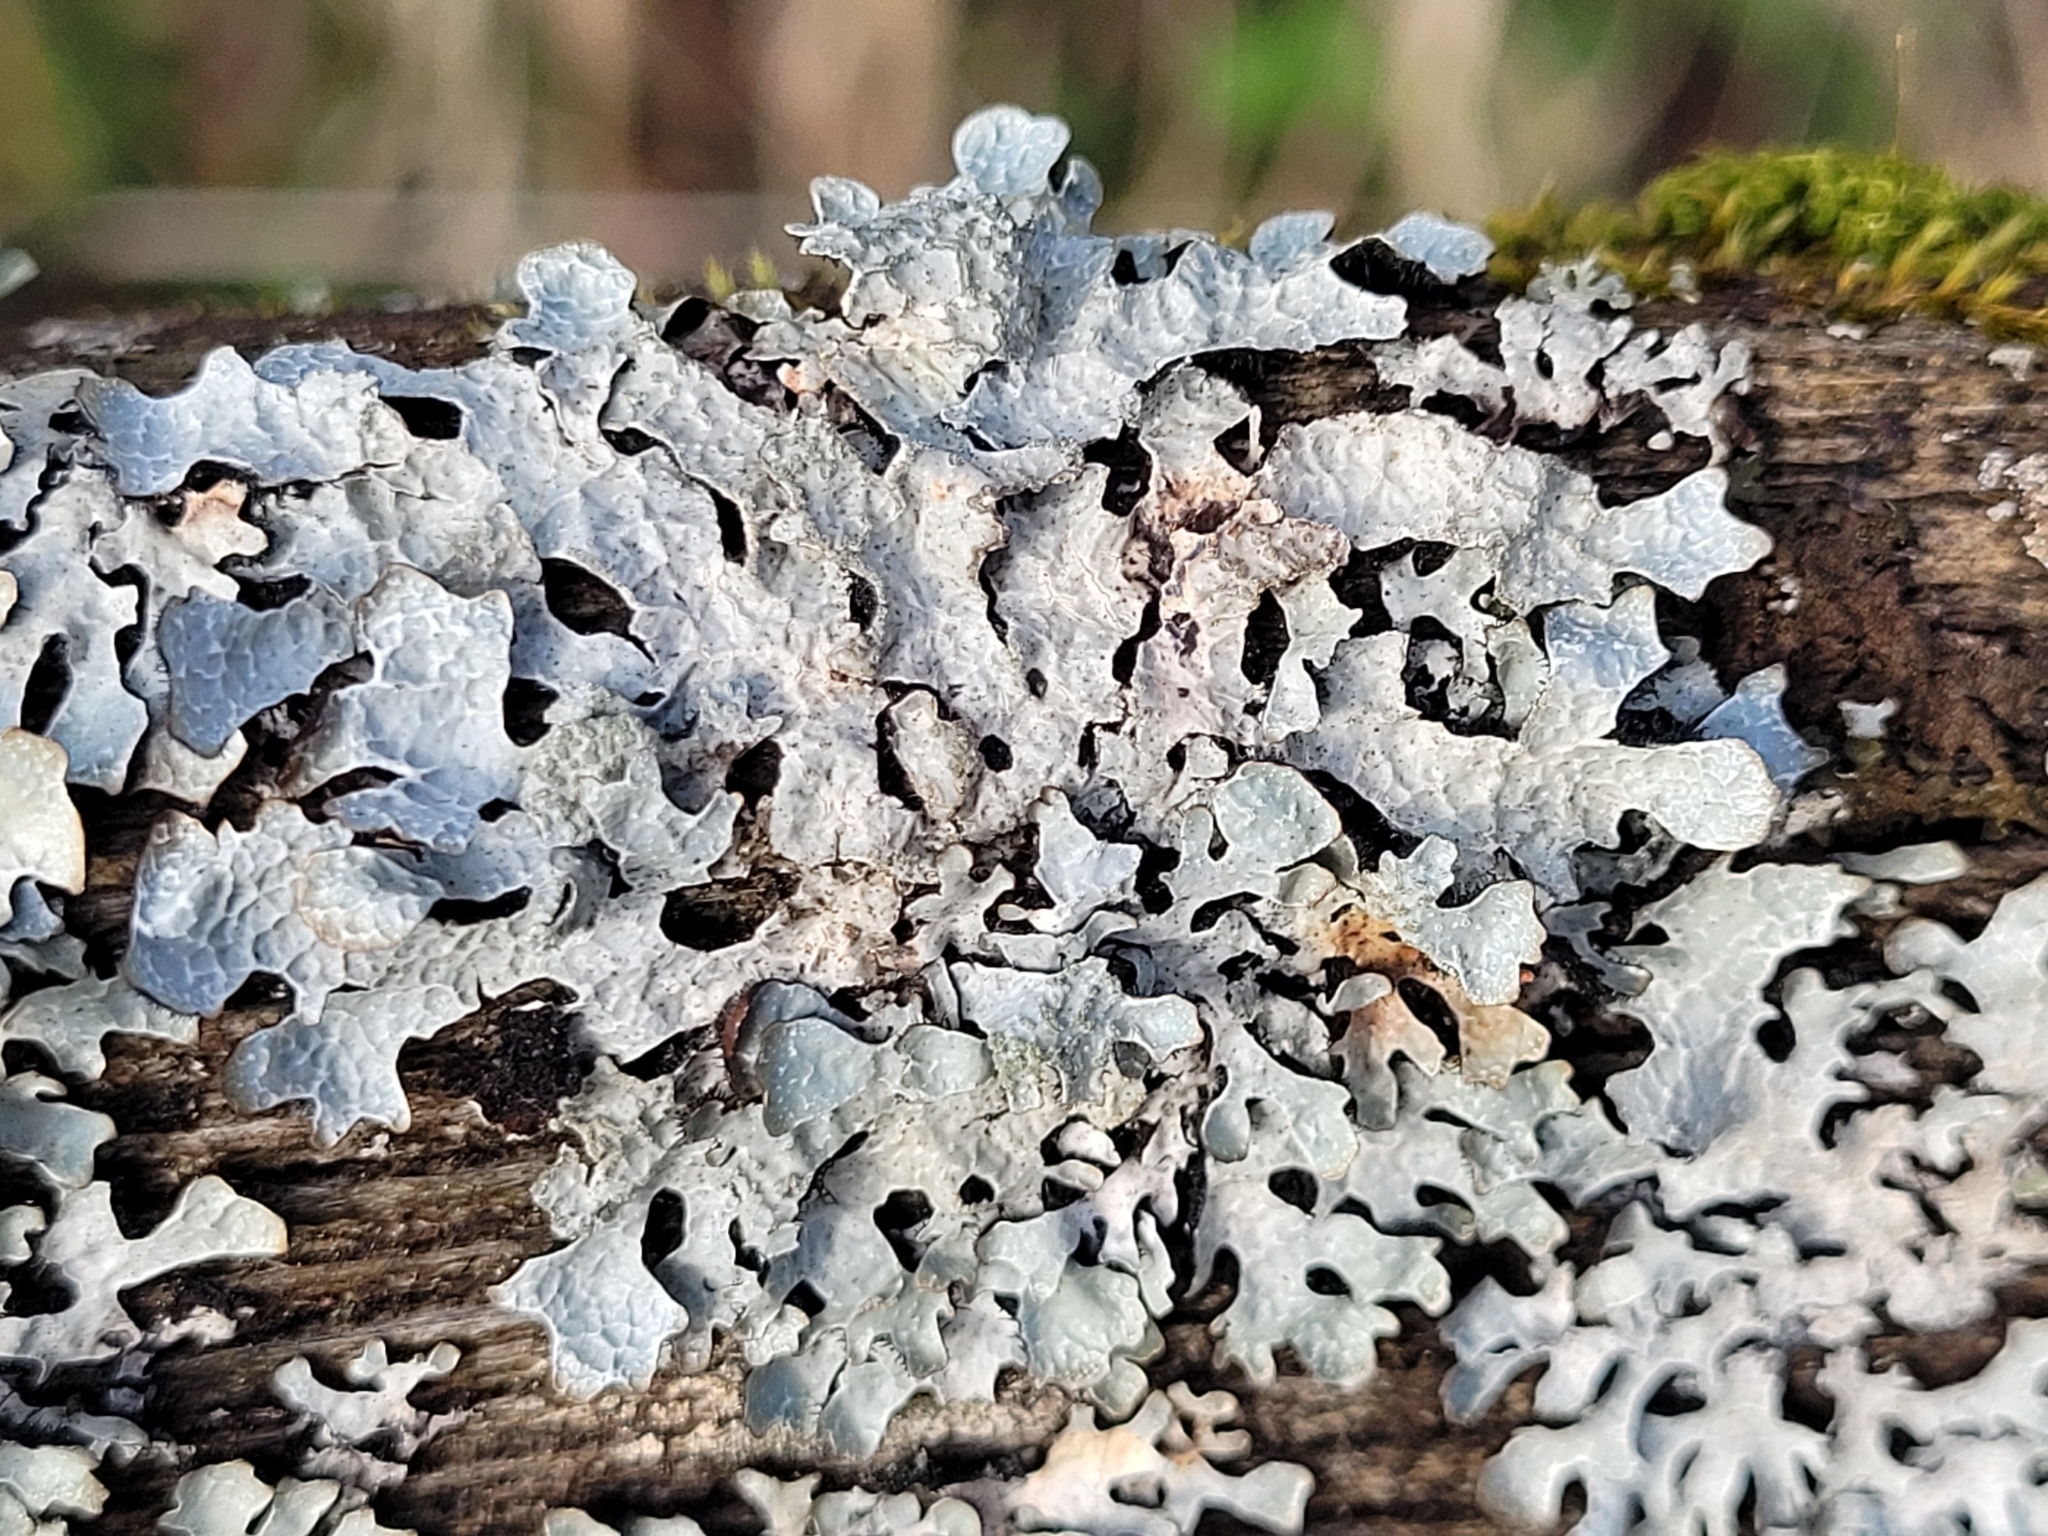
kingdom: Fungi
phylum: Ascomycota
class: Lecanoromycetes
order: Lecanorales
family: Parmeliaceae
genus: Parmelia
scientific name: Parmelia sulcata
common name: Netted shield lichen
